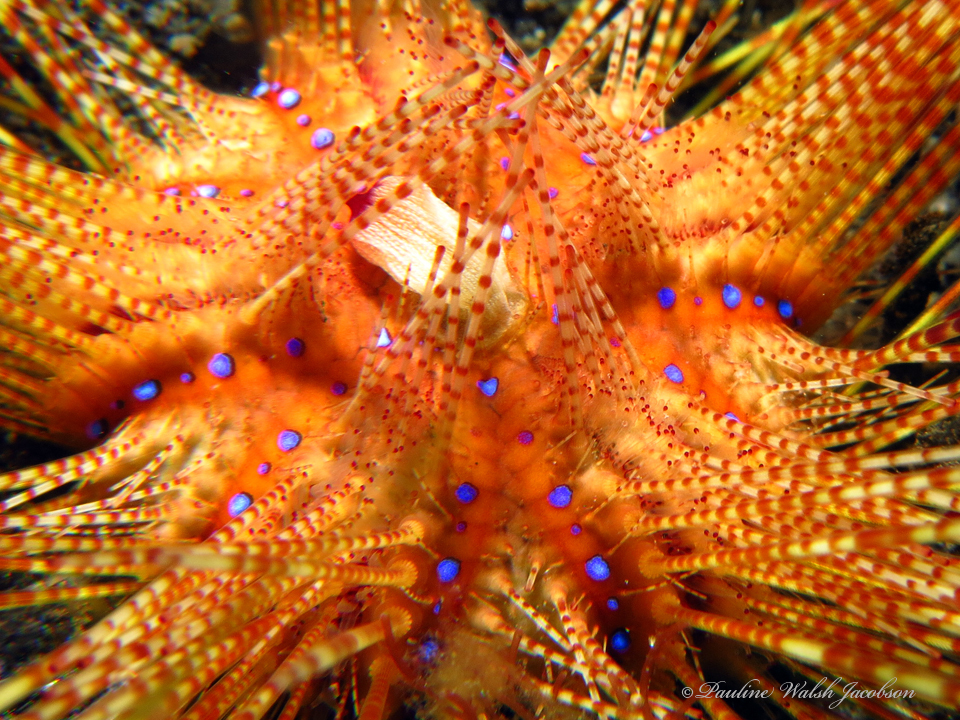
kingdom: Animalia
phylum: Echinodermata
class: Echinoidea
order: Diadematoida
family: Diadematidae
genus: Astropyga
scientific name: Astropyga radiata
